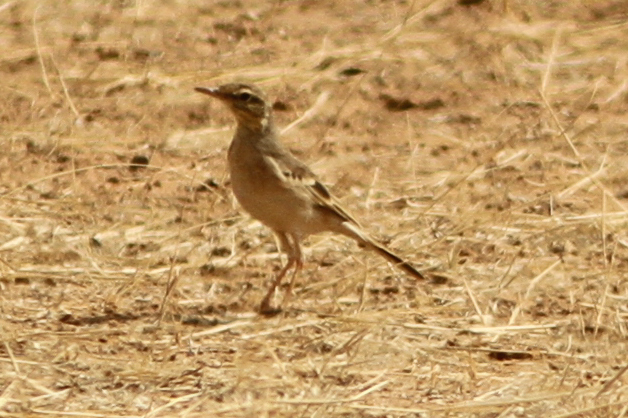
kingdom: Animalia
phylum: Chordata
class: Aves
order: Passeriformes
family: Motacillidae
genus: Anthus
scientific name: Anthus campestris
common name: Tawny pipit
